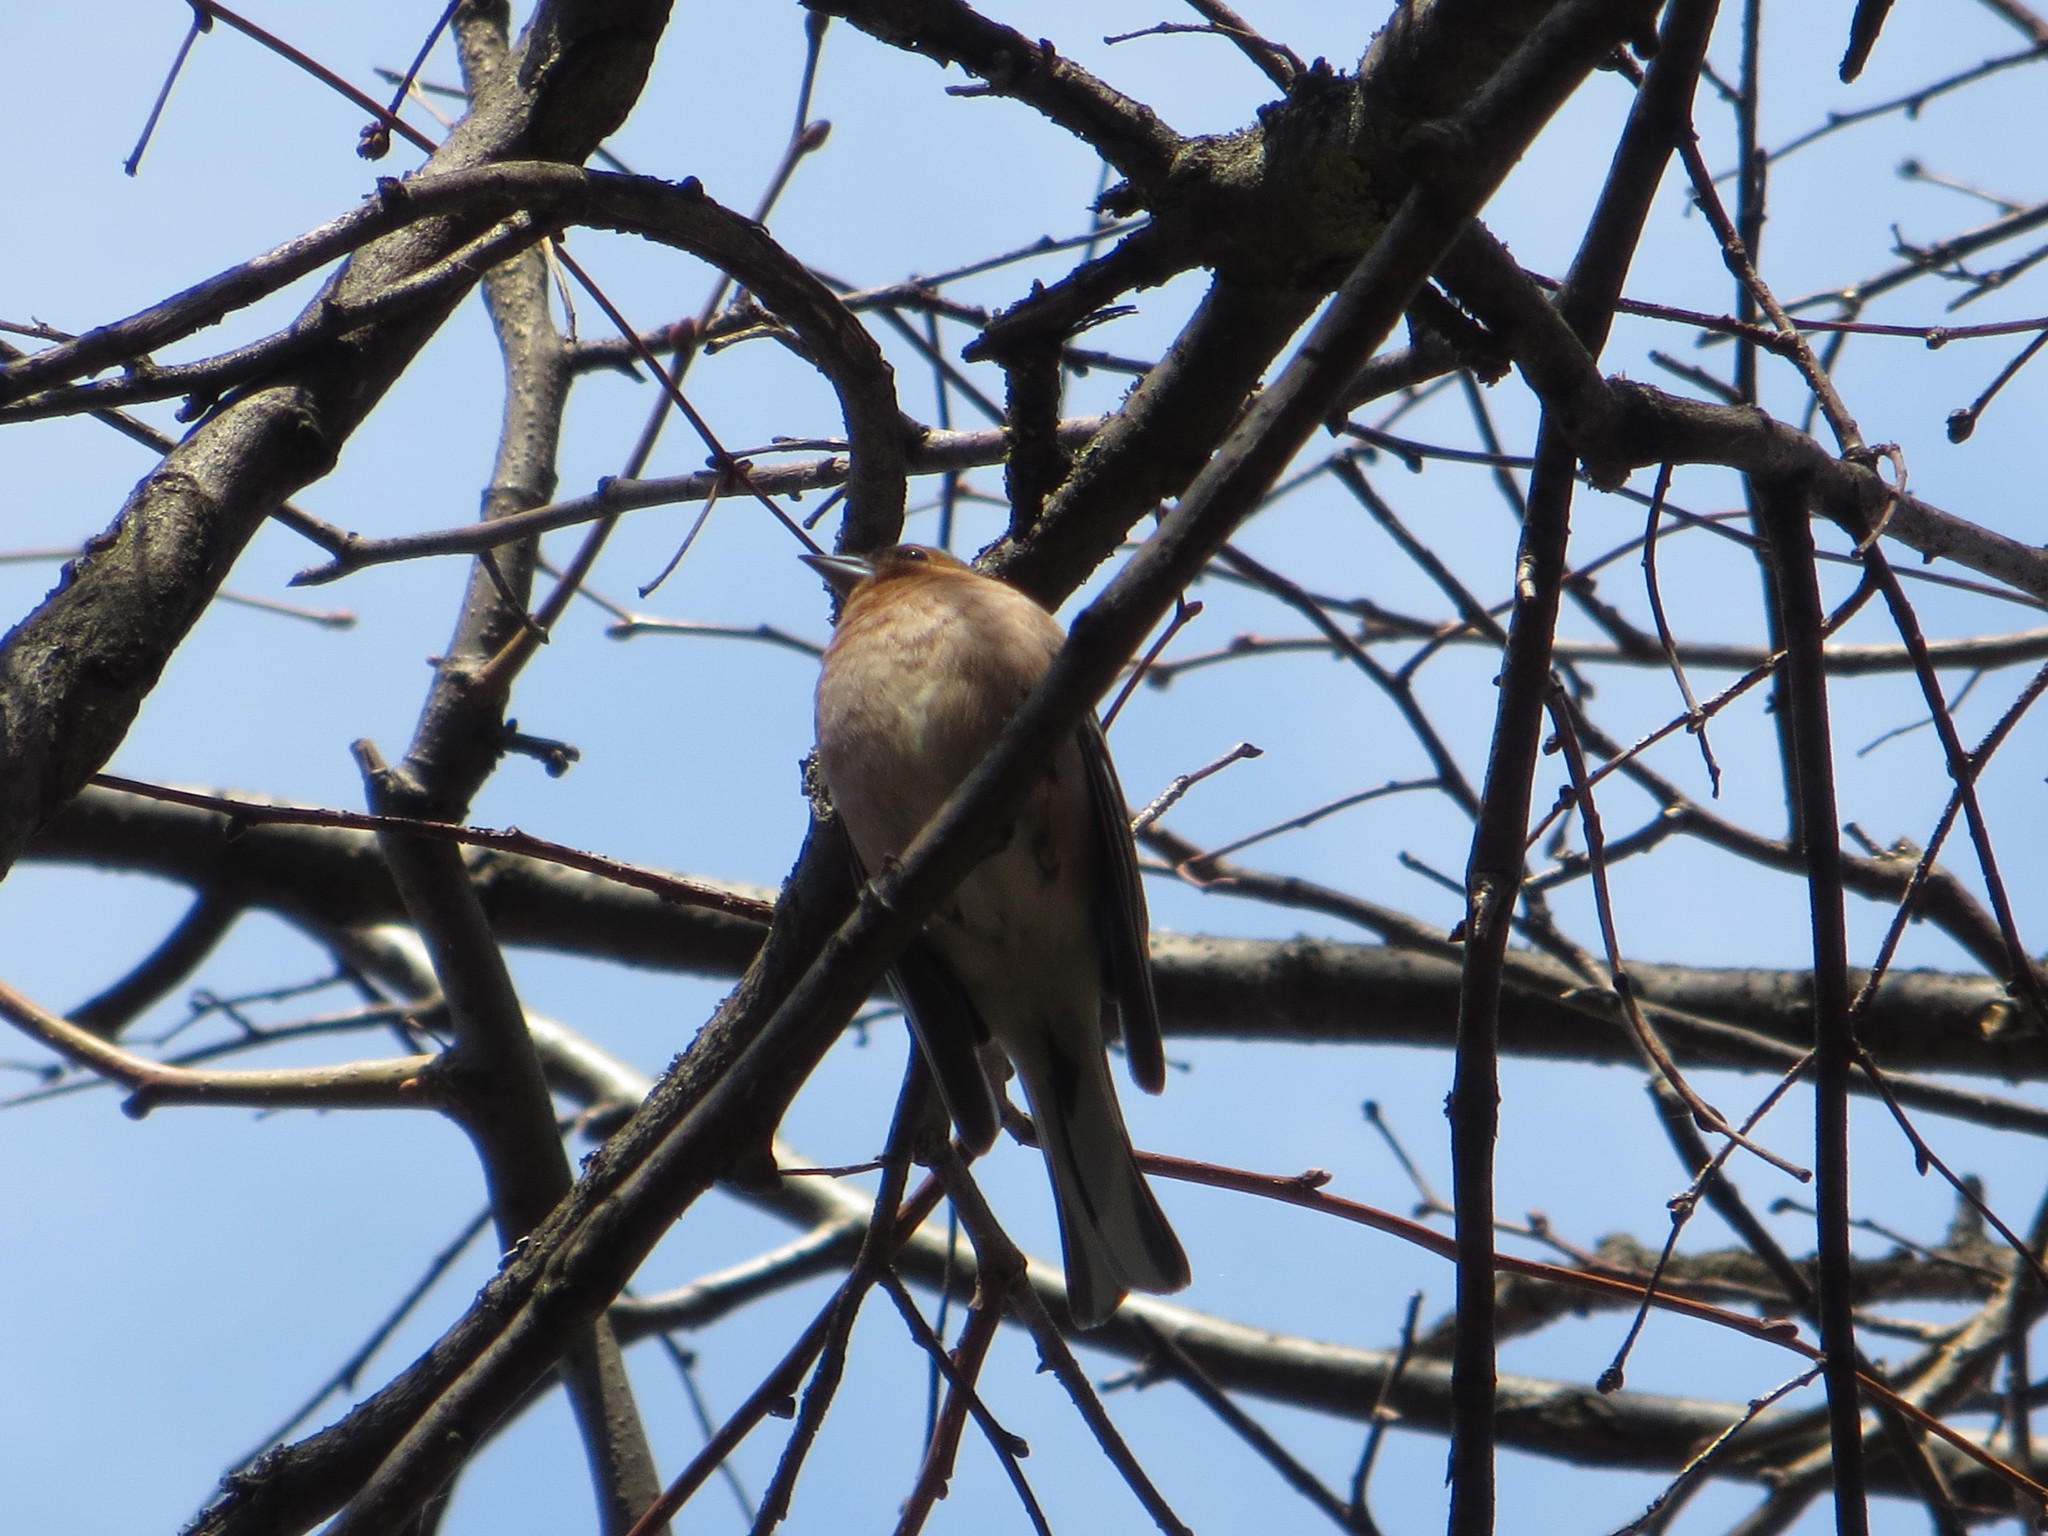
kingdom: Animalia
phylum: Chordata
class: Aves
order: Passeriformes
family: Fringillidae
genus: Fringilla
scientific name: Fringilla coelebs
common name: Common chaffinch
